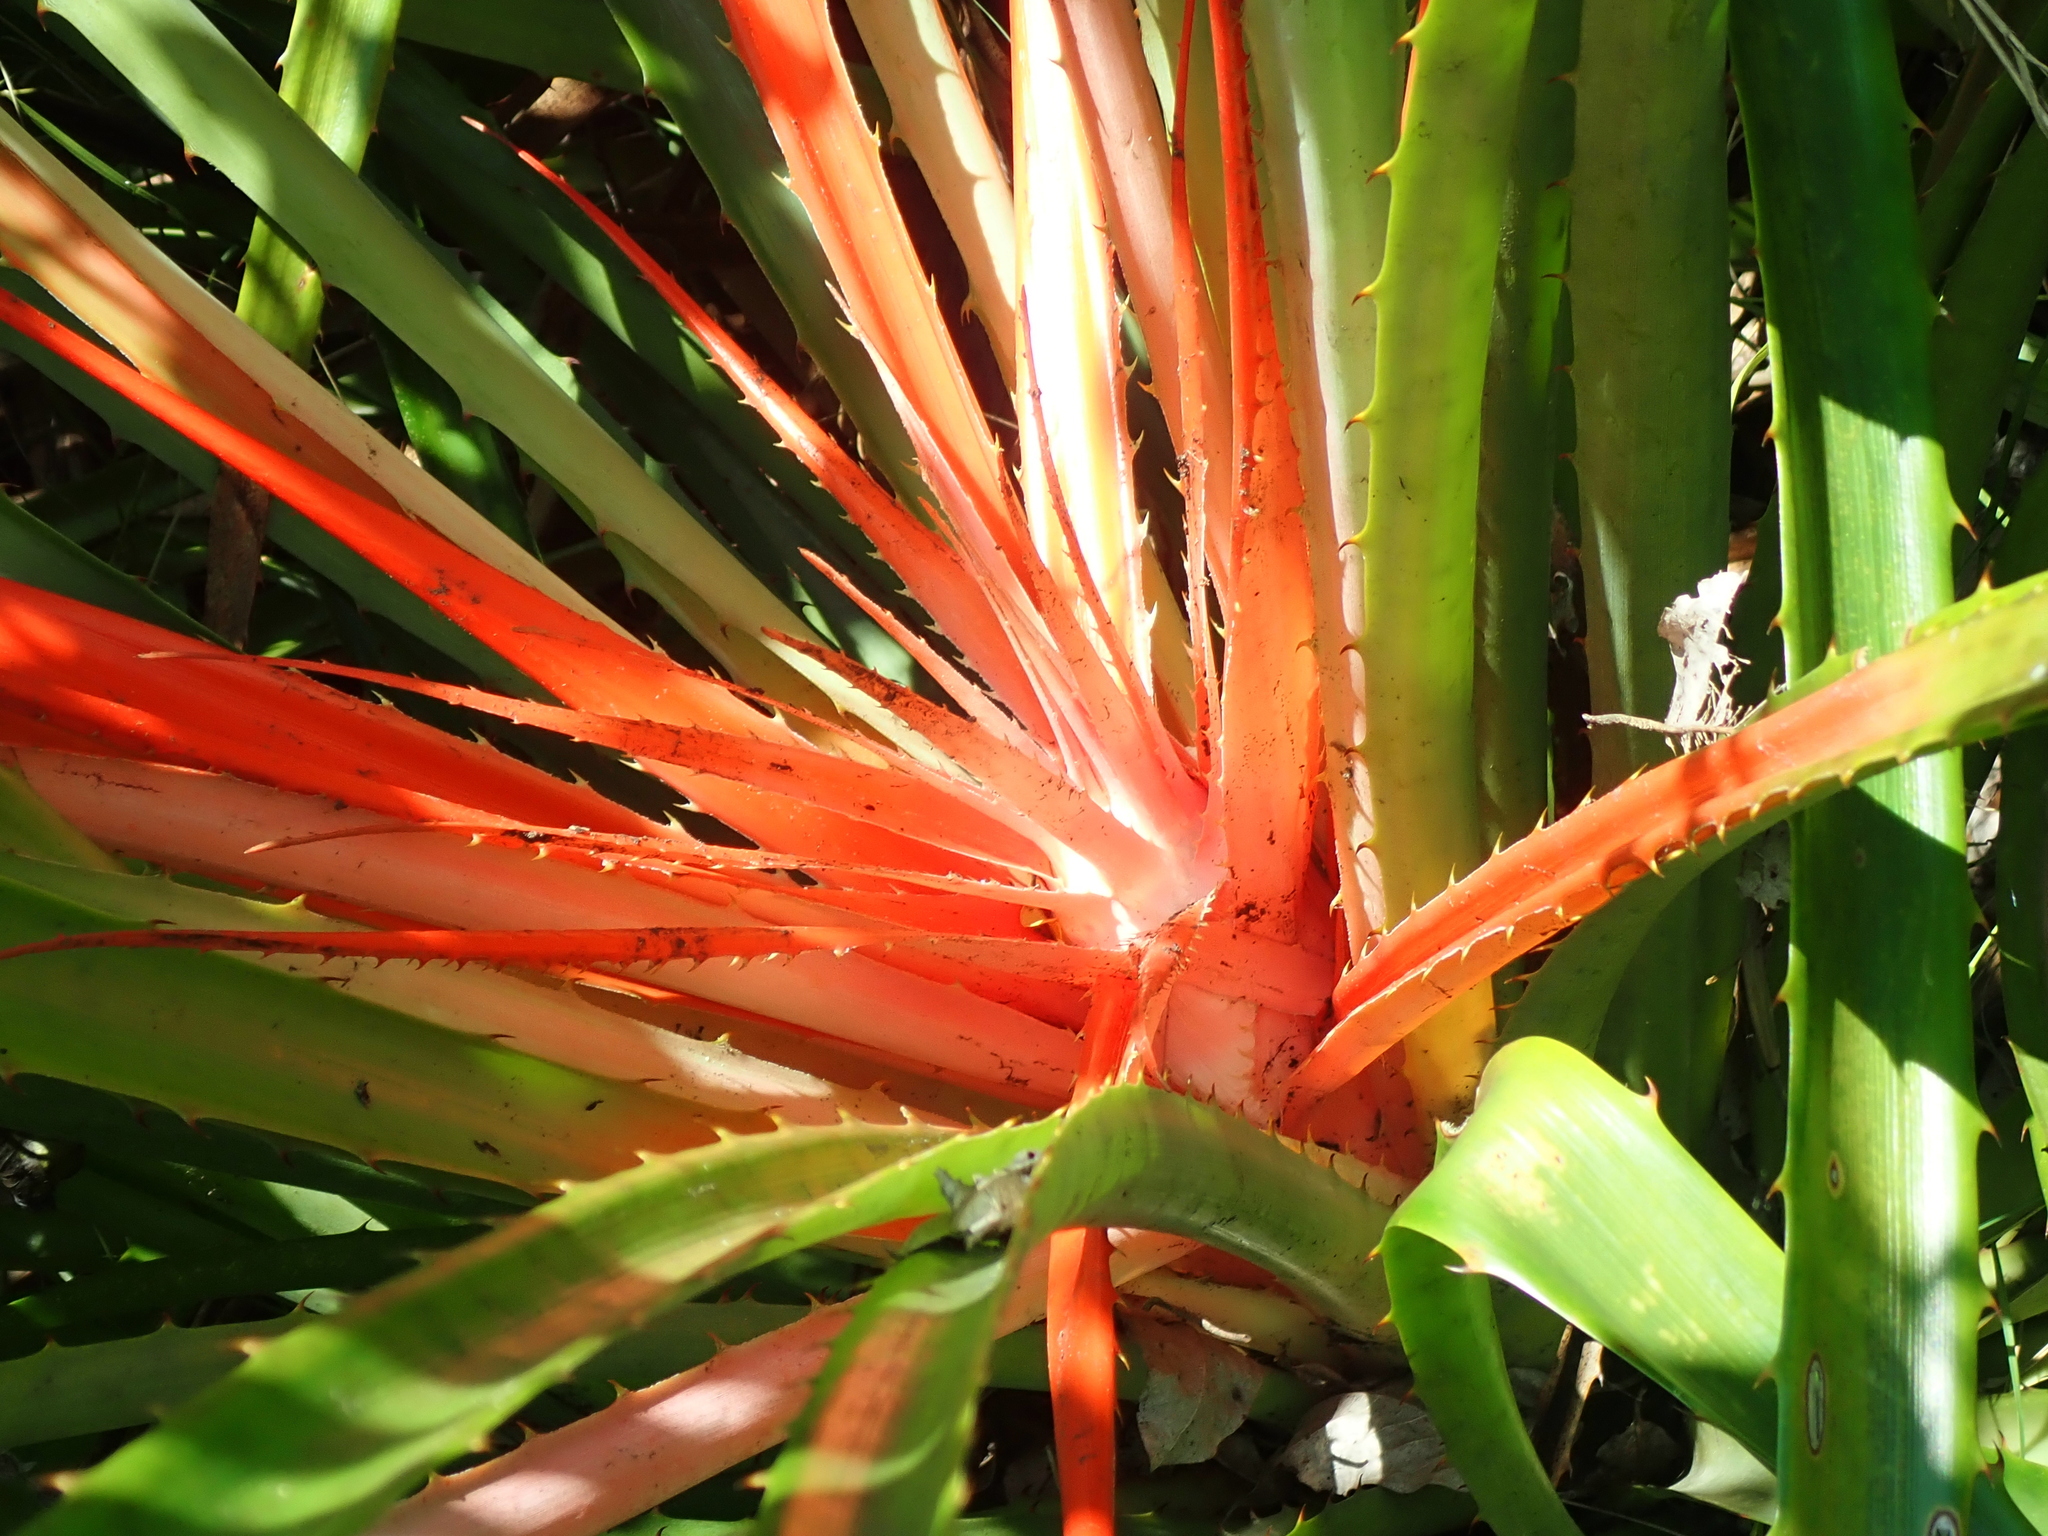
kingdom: Plantae
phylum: Tracheophyta
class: Liliopsida
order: Poales
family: Bromeliaceae
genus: Bromelia
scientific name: Bromelia antiacantha
